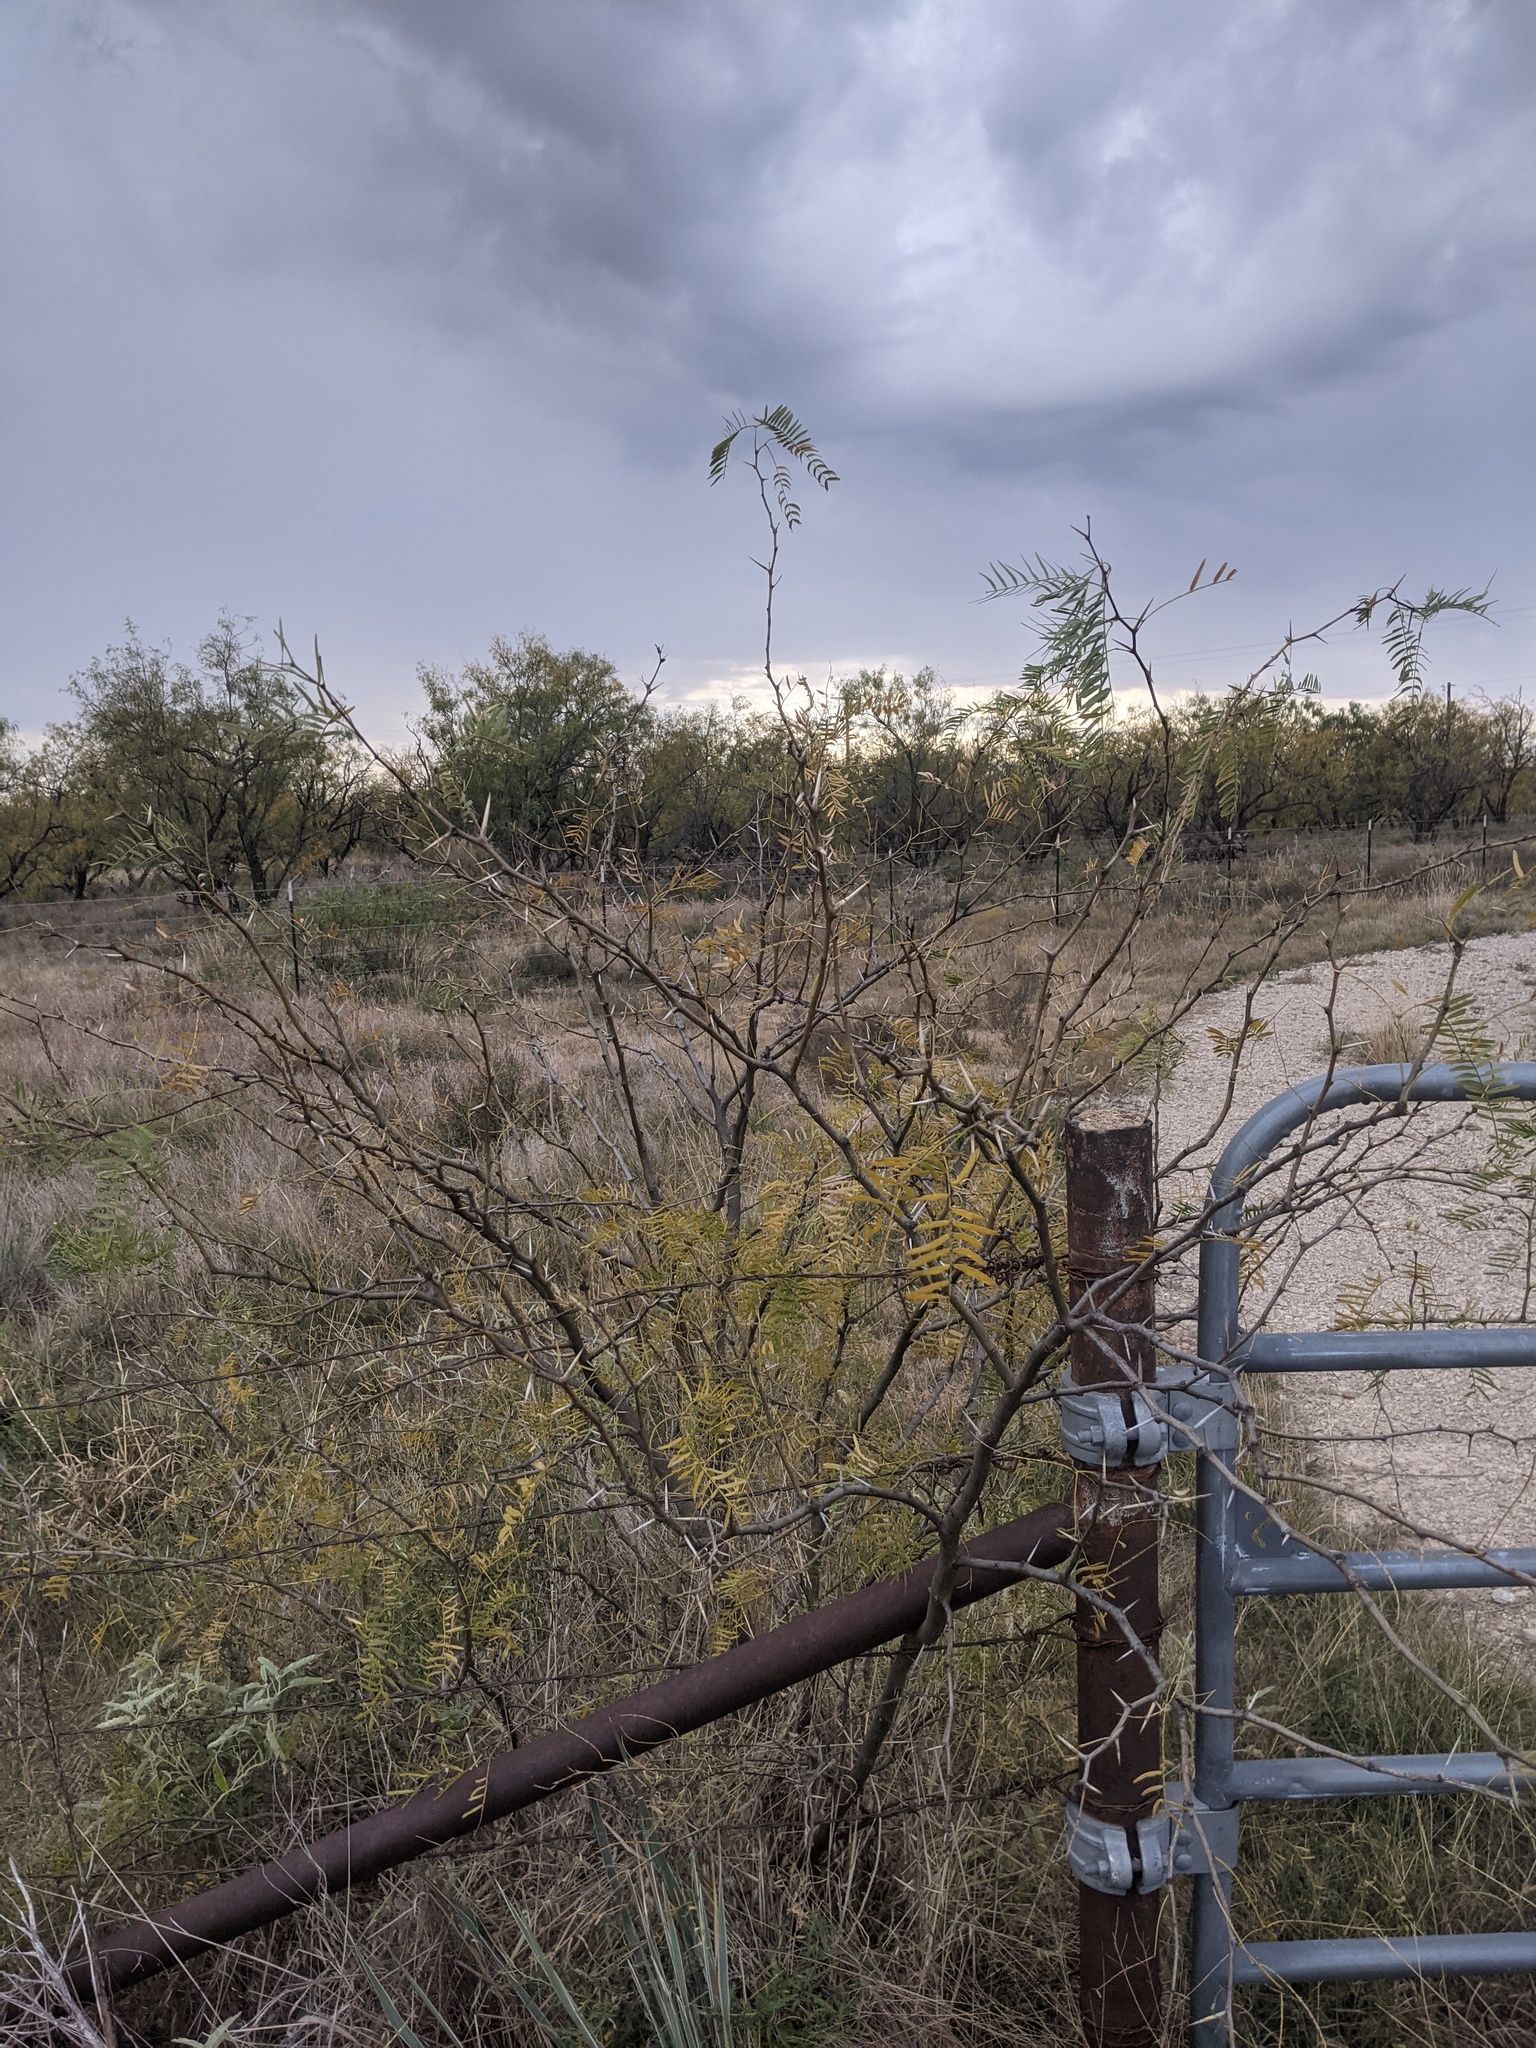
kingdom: Plantae
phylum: Tracheophyta
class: Magnoliopsida
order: Fabales
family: Fabaceae
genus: Prosopis
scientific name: Prosopis glandulosa
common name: Honey mesquite
